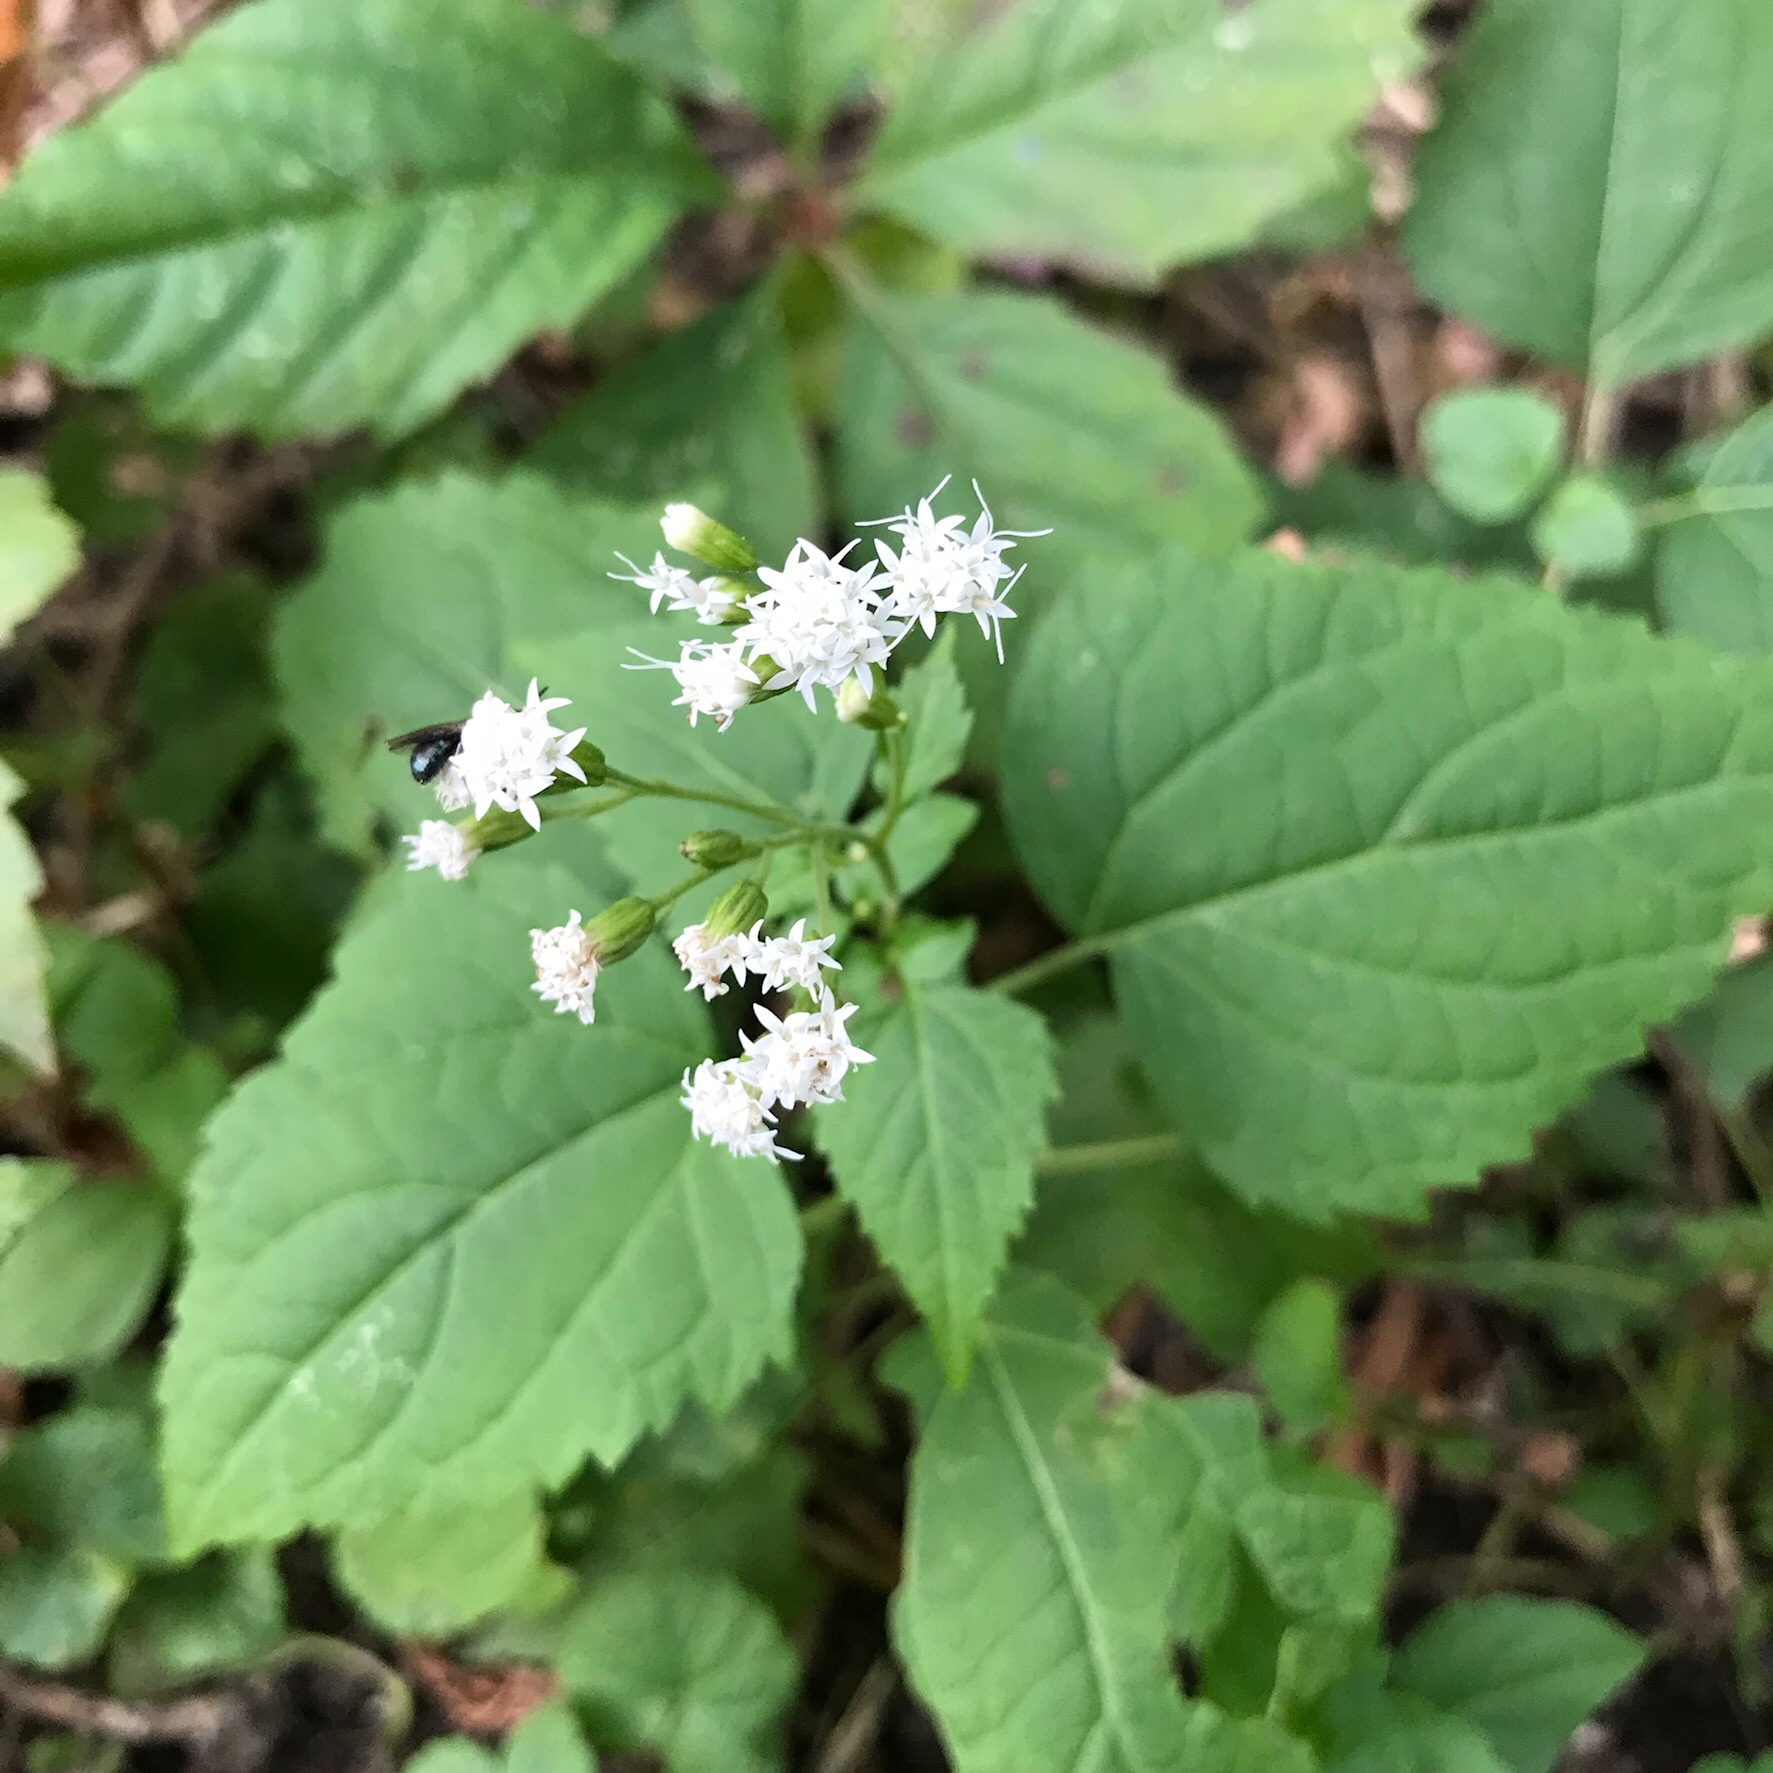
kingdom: Plantae
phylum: Tracheophyta
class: Magnoliopsida
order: Asterales
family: Asteraceae
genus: Ageratina
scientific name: Ageratina altissima
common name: White snakeroot
